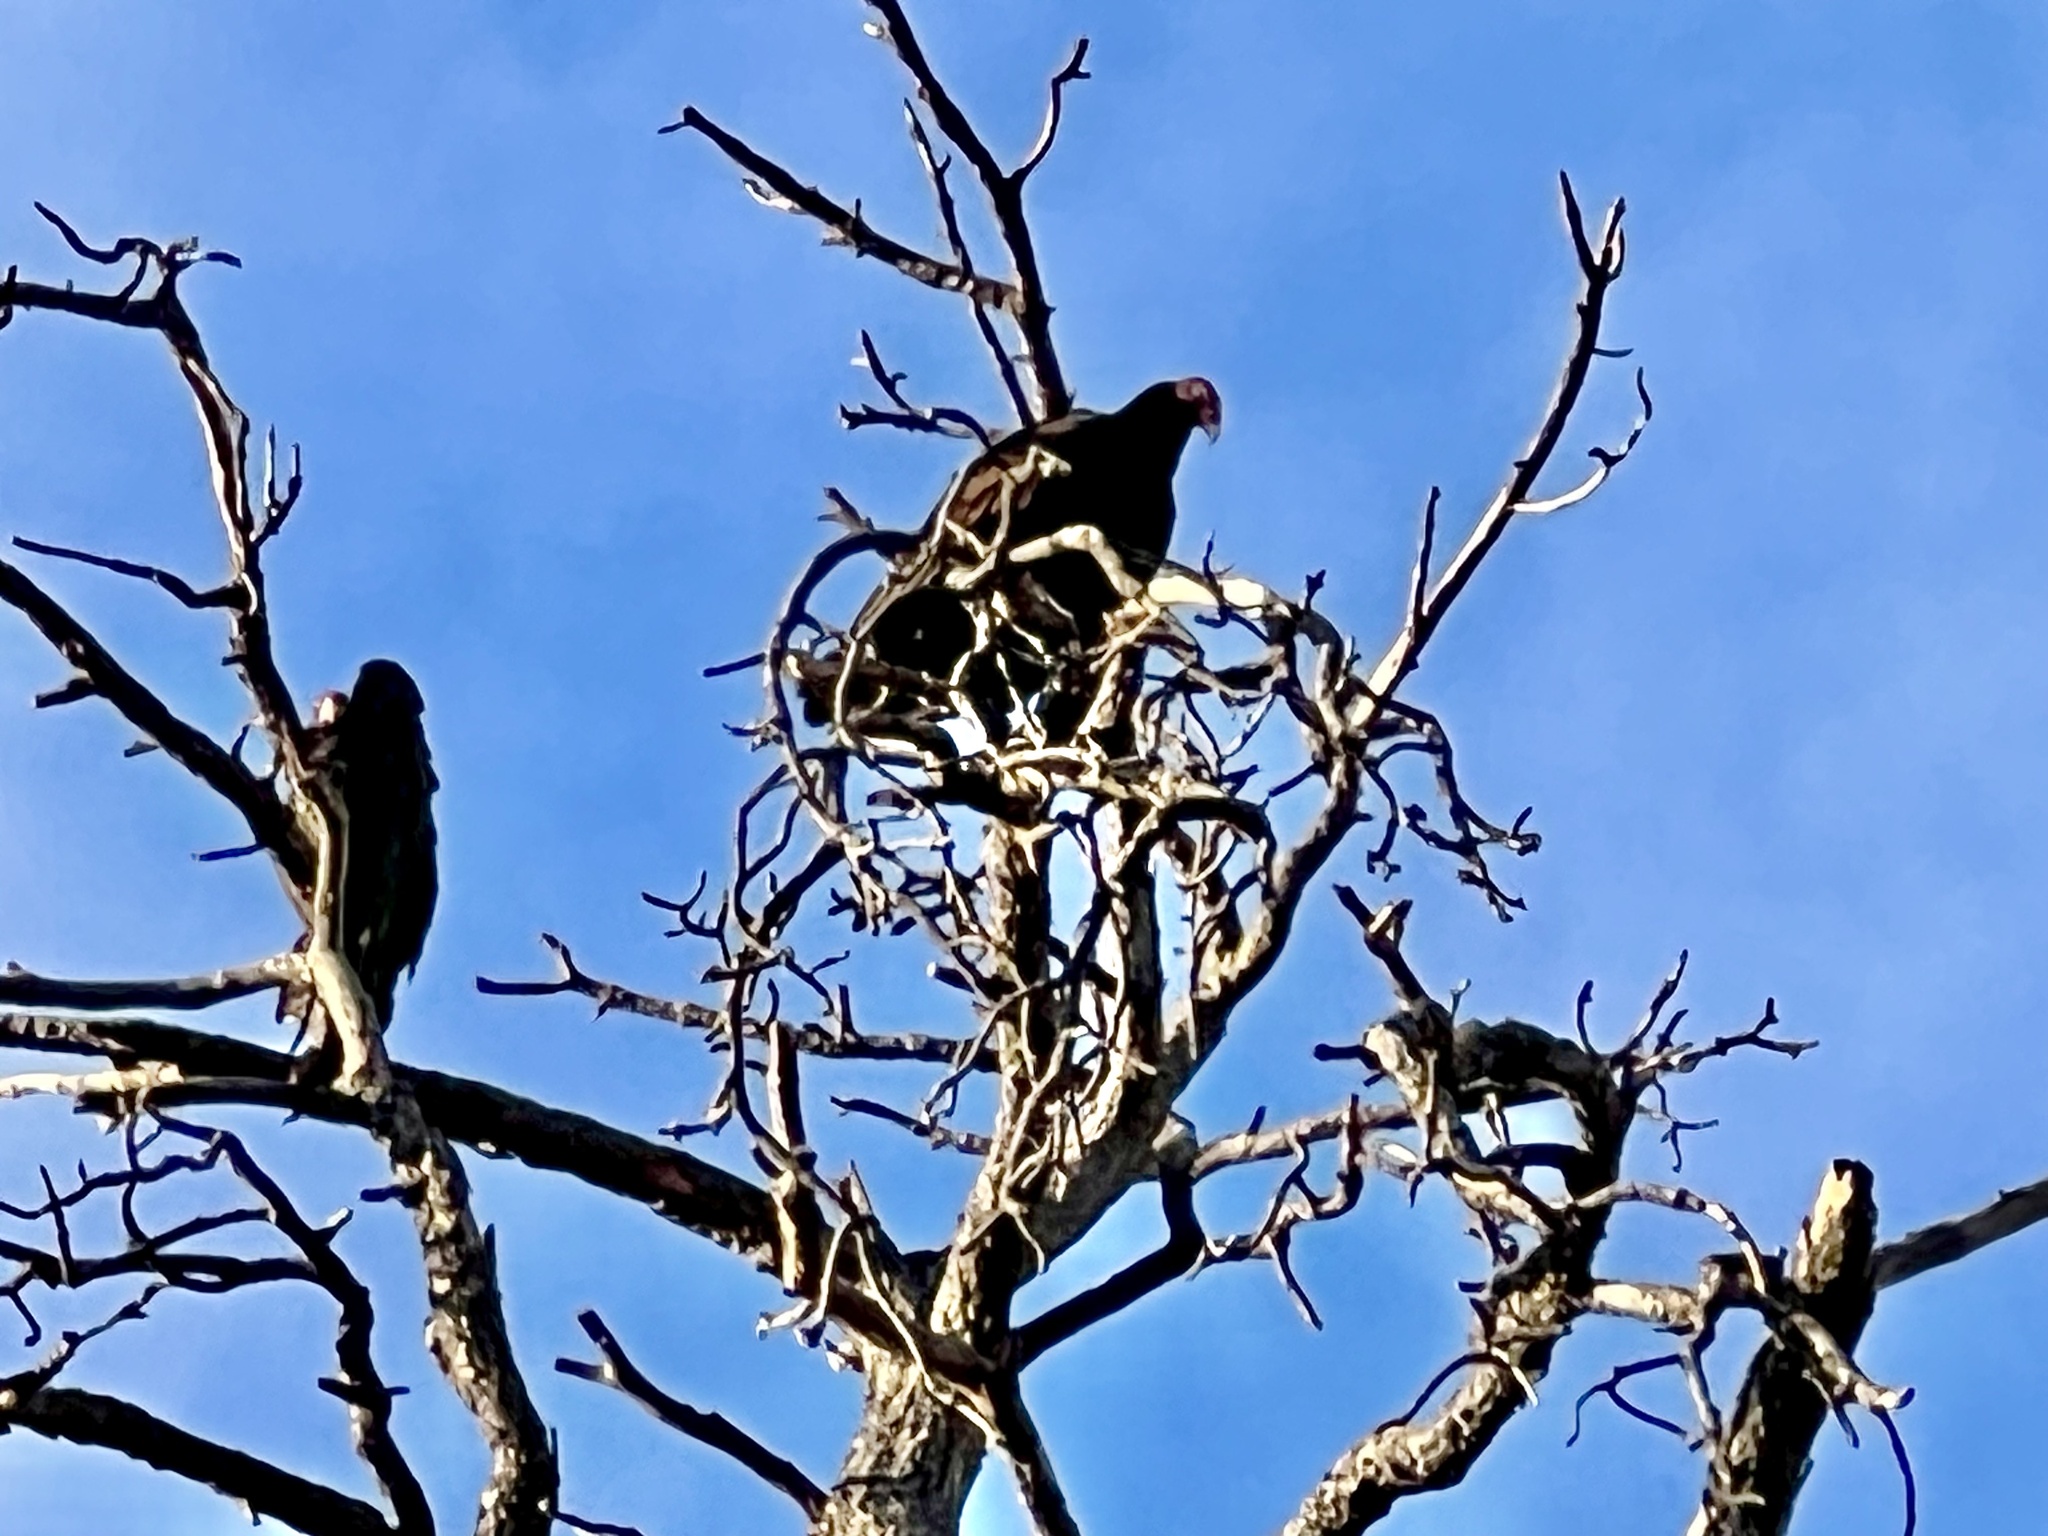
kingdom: Animalia
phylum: Chordata
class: Aves
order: Accipitriformes
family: Cathartidae
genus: Cathartes
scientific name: Cathartes aura
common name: Turkey vulture
